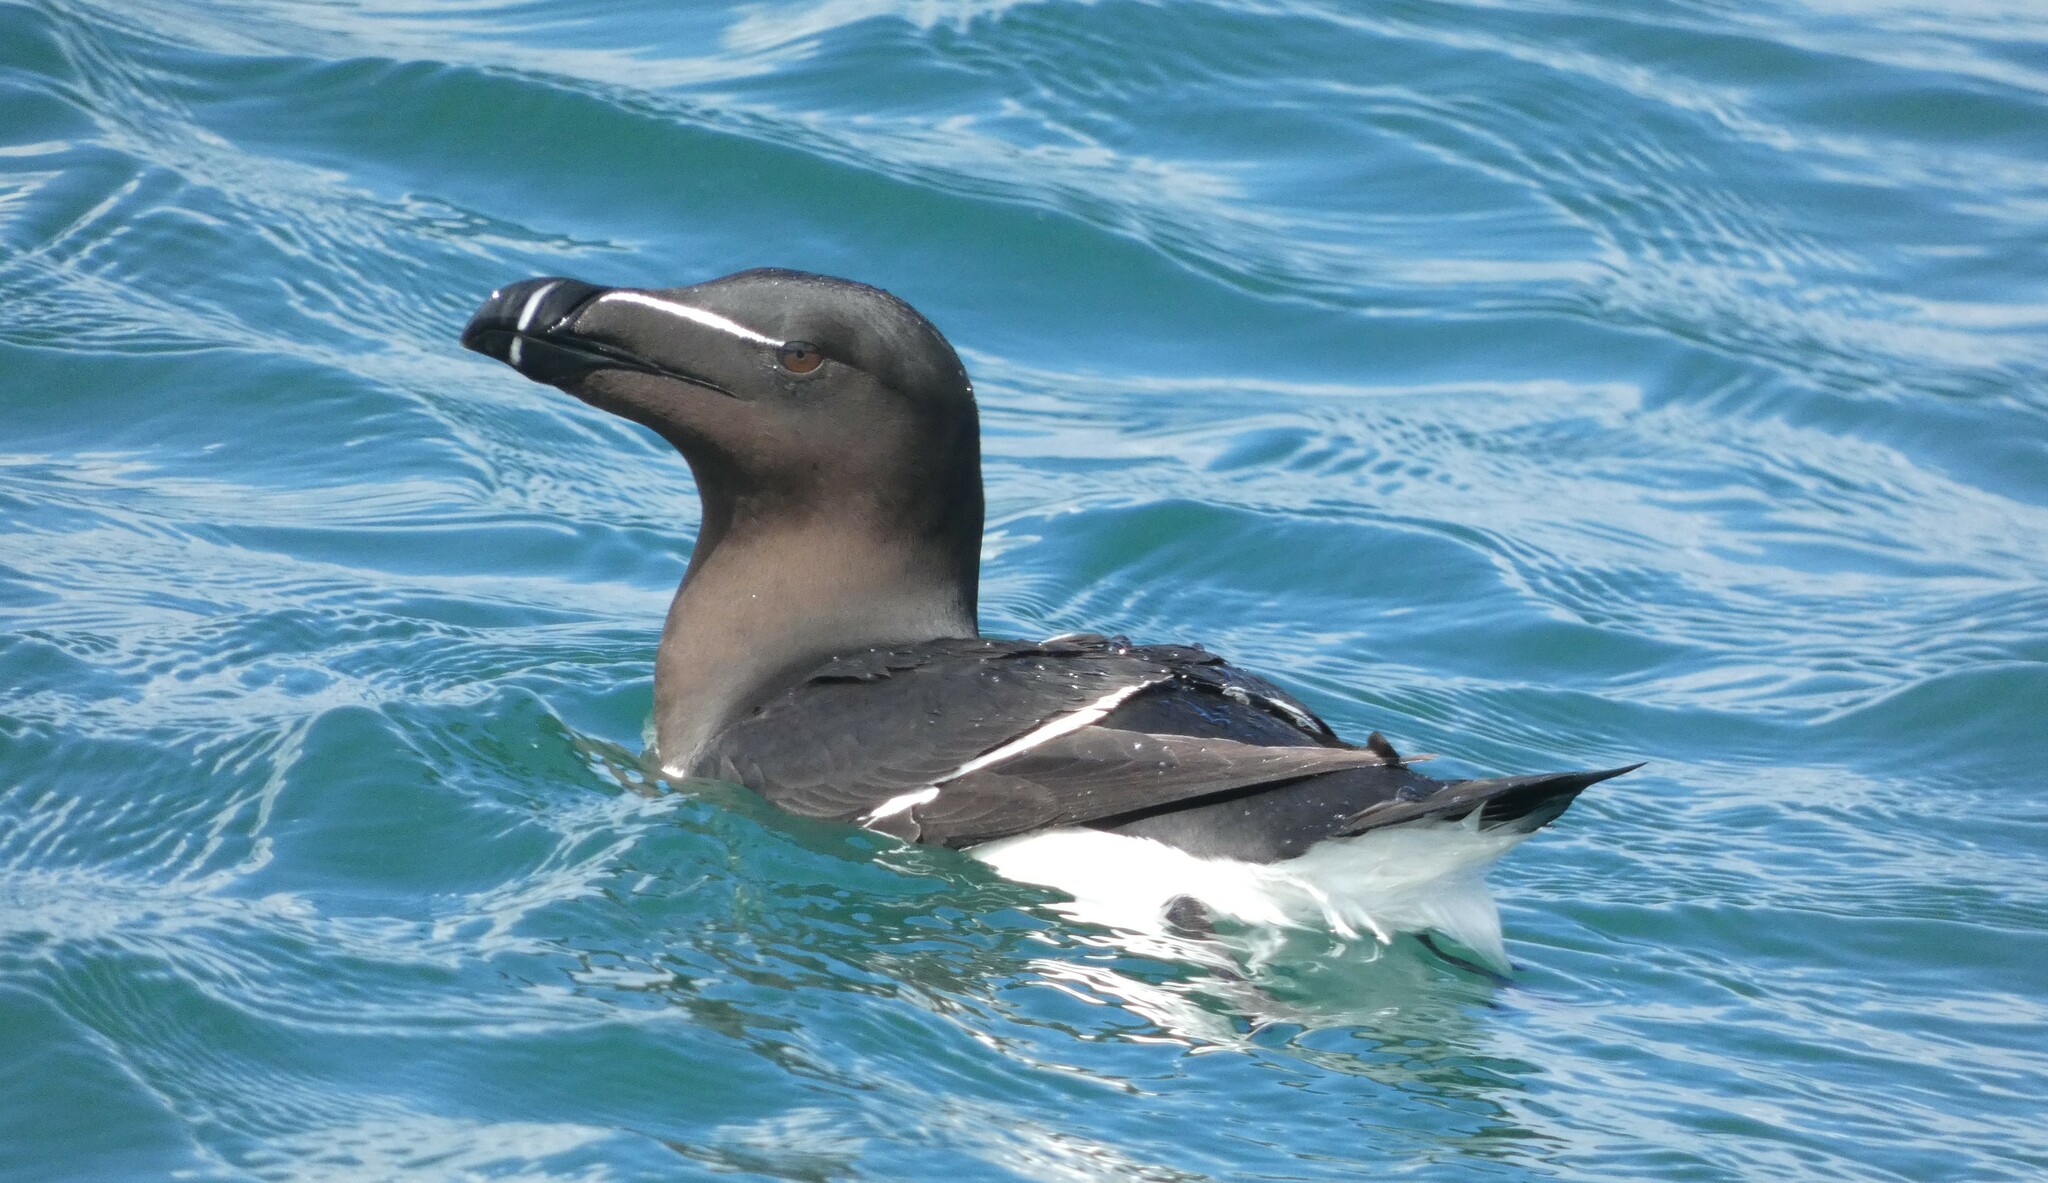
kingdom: Animalia
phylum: Chordata
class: Aves
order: Charadriiformes
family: Alcidae
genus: Alca
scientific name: Alca torda
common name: Razorbill
